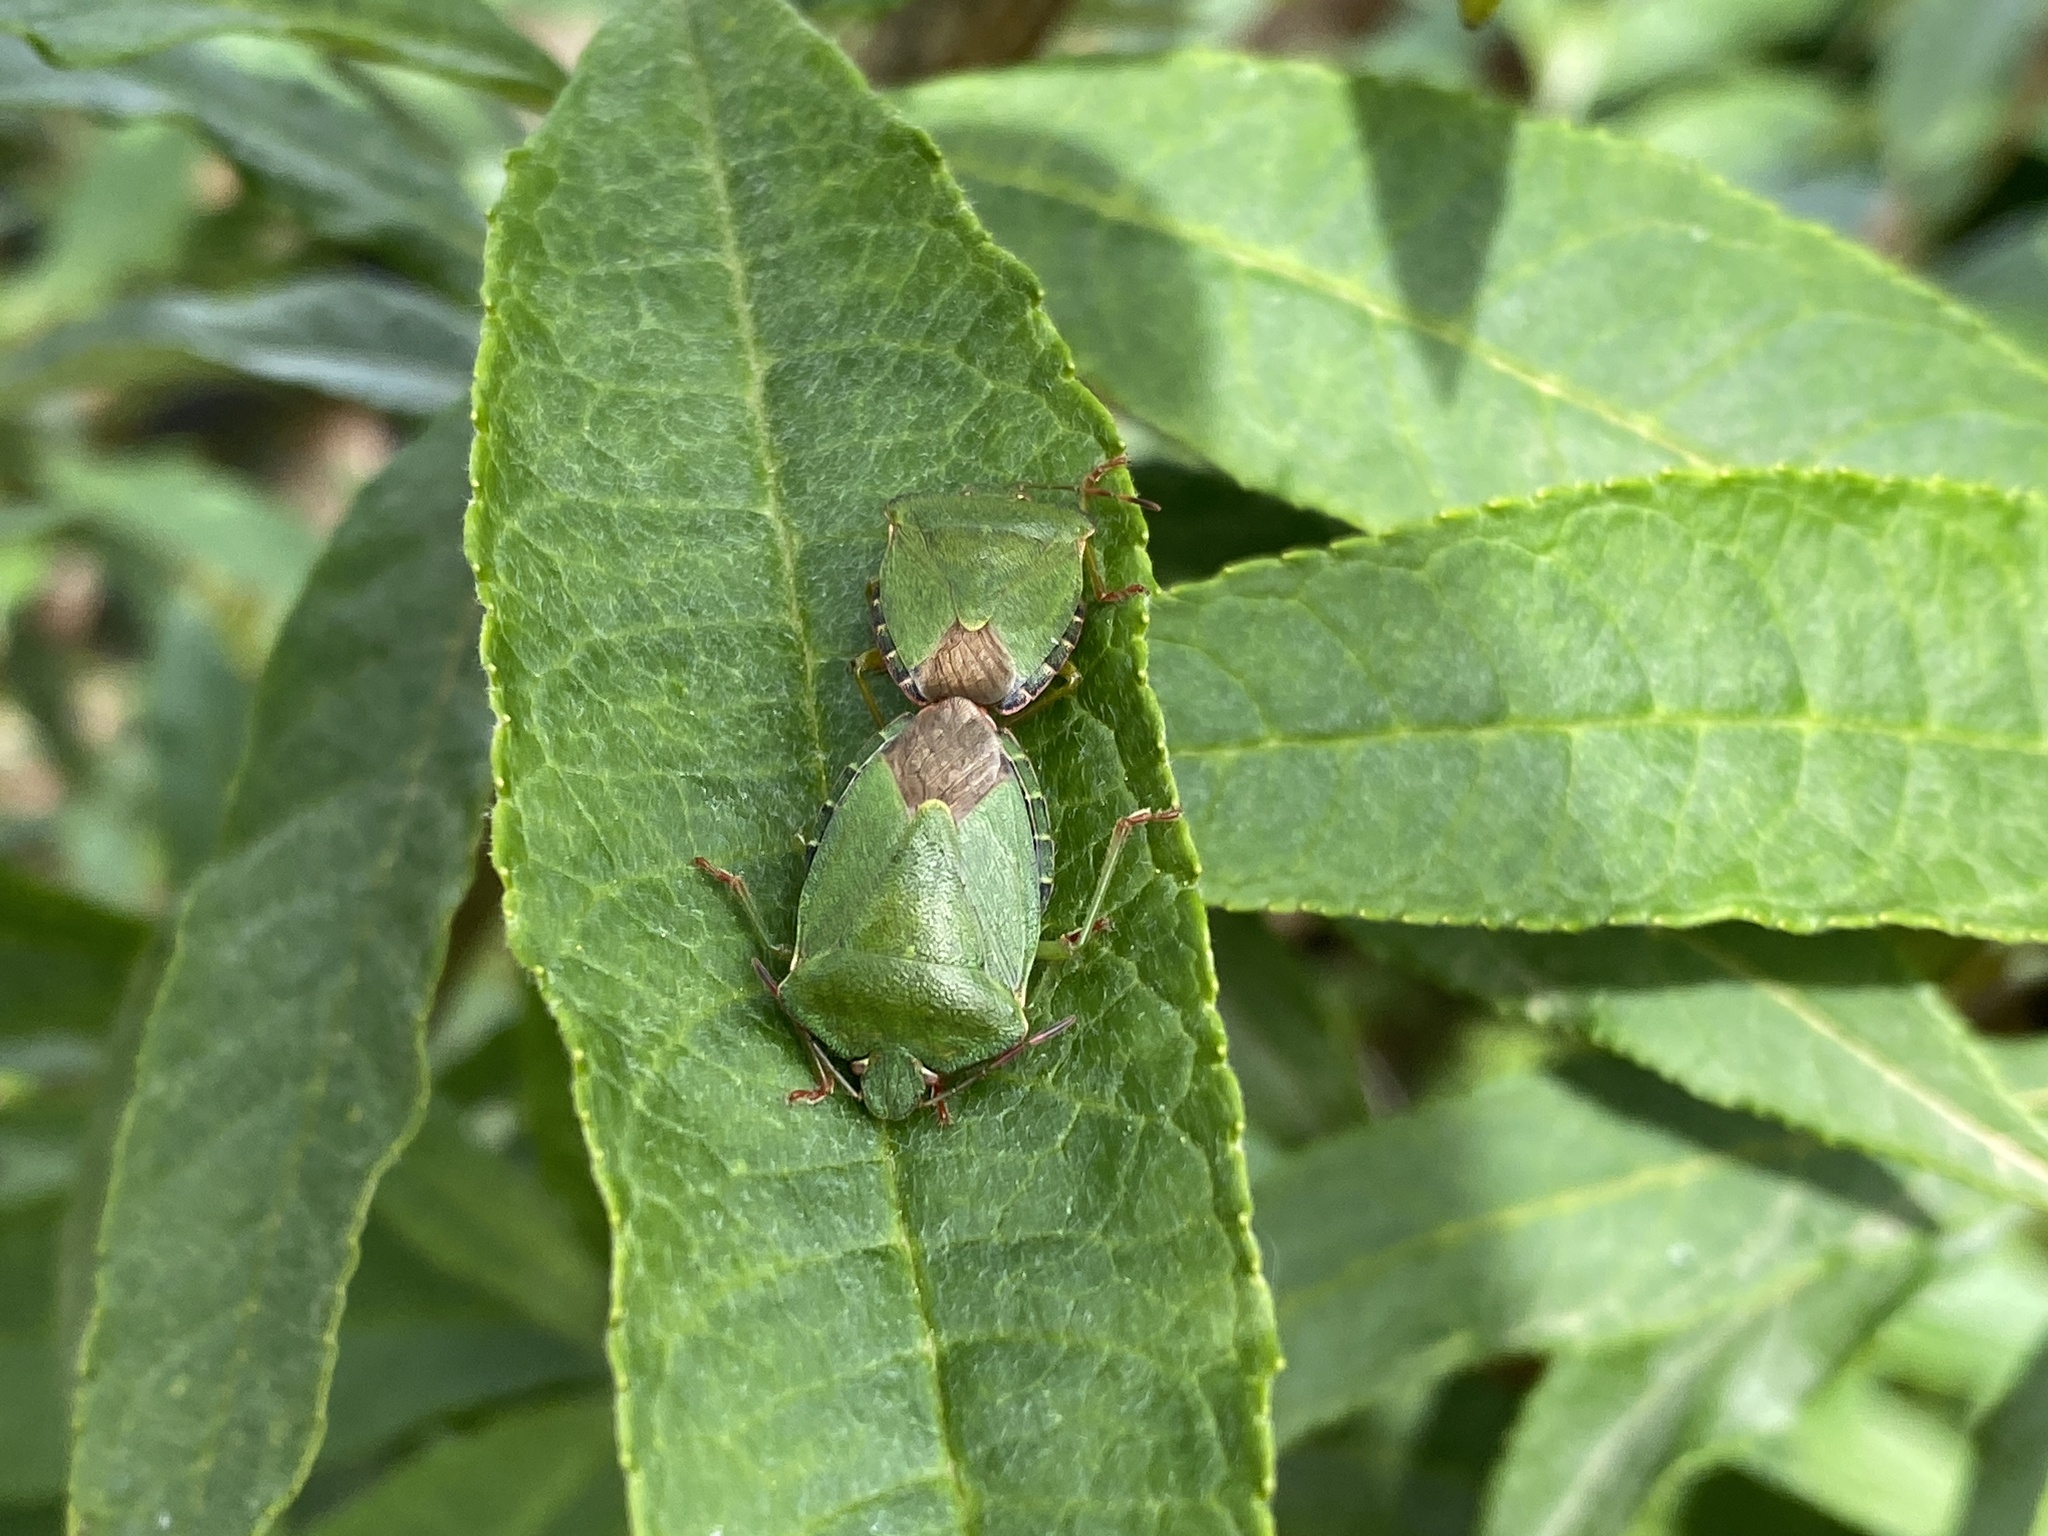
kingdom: Animalia
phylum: Arthropoda
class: Insecta
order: Hemiptera
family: Pentatomidae
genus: Palomena
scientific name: Palomena prasina
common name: Green shieldbug
